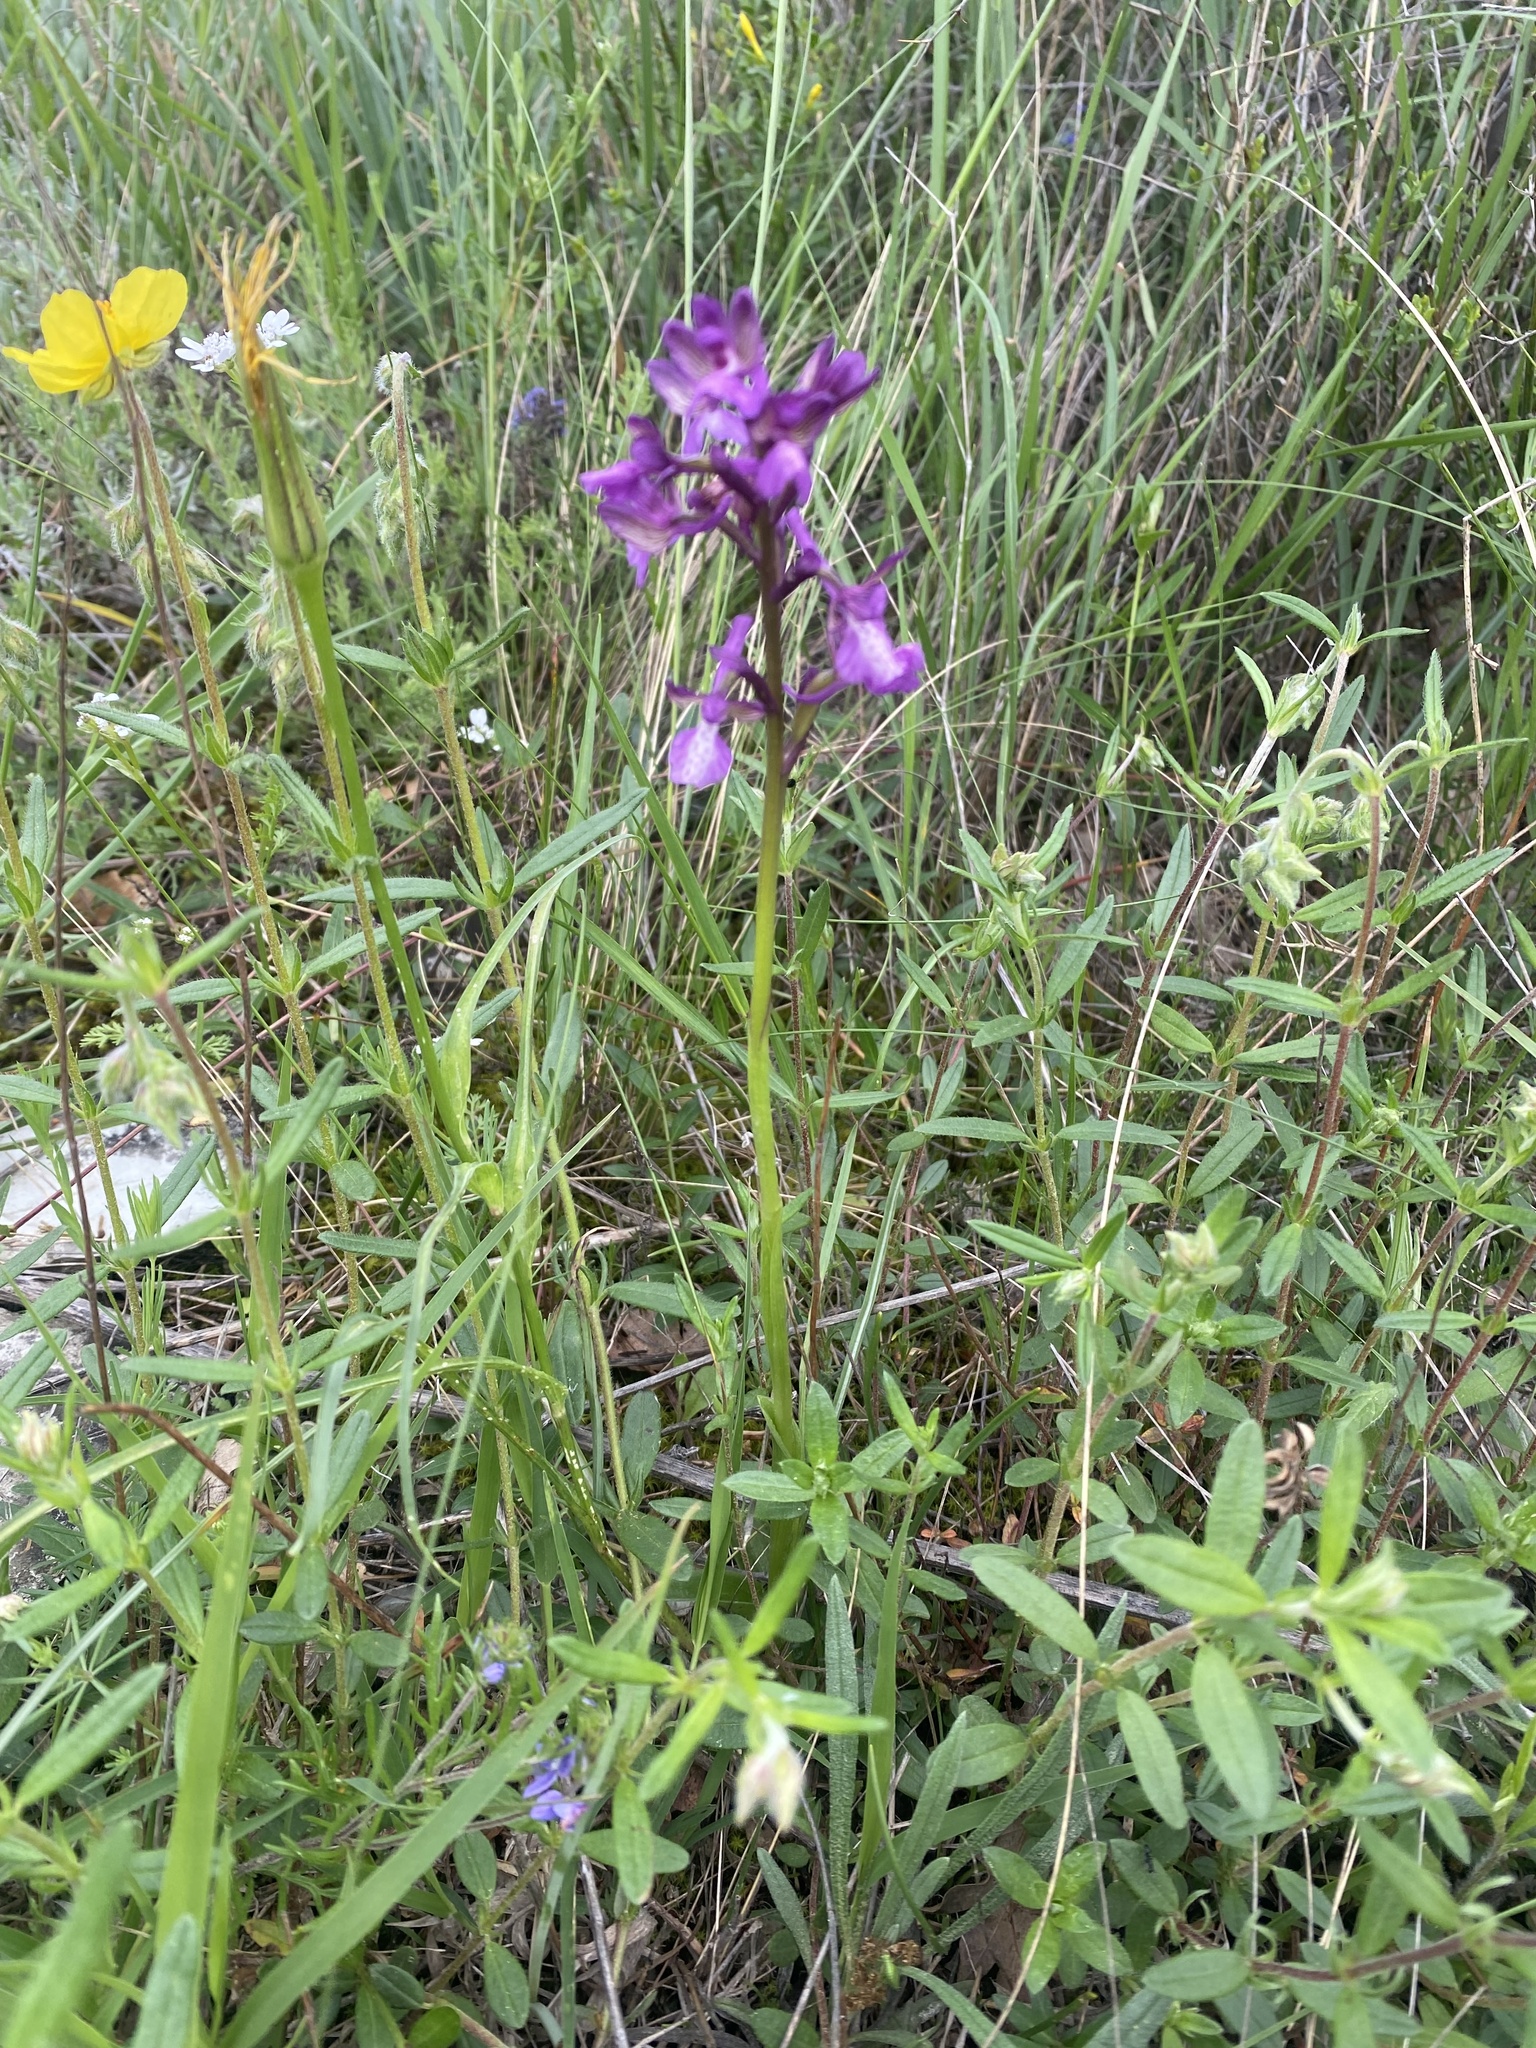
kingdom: Plantae
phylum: Tracheophyta
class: Liliopsida
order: Asparagales
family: Orchidaceae
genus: Anacamptis
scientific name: Anacamptis morio
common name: Green-winged orchid
